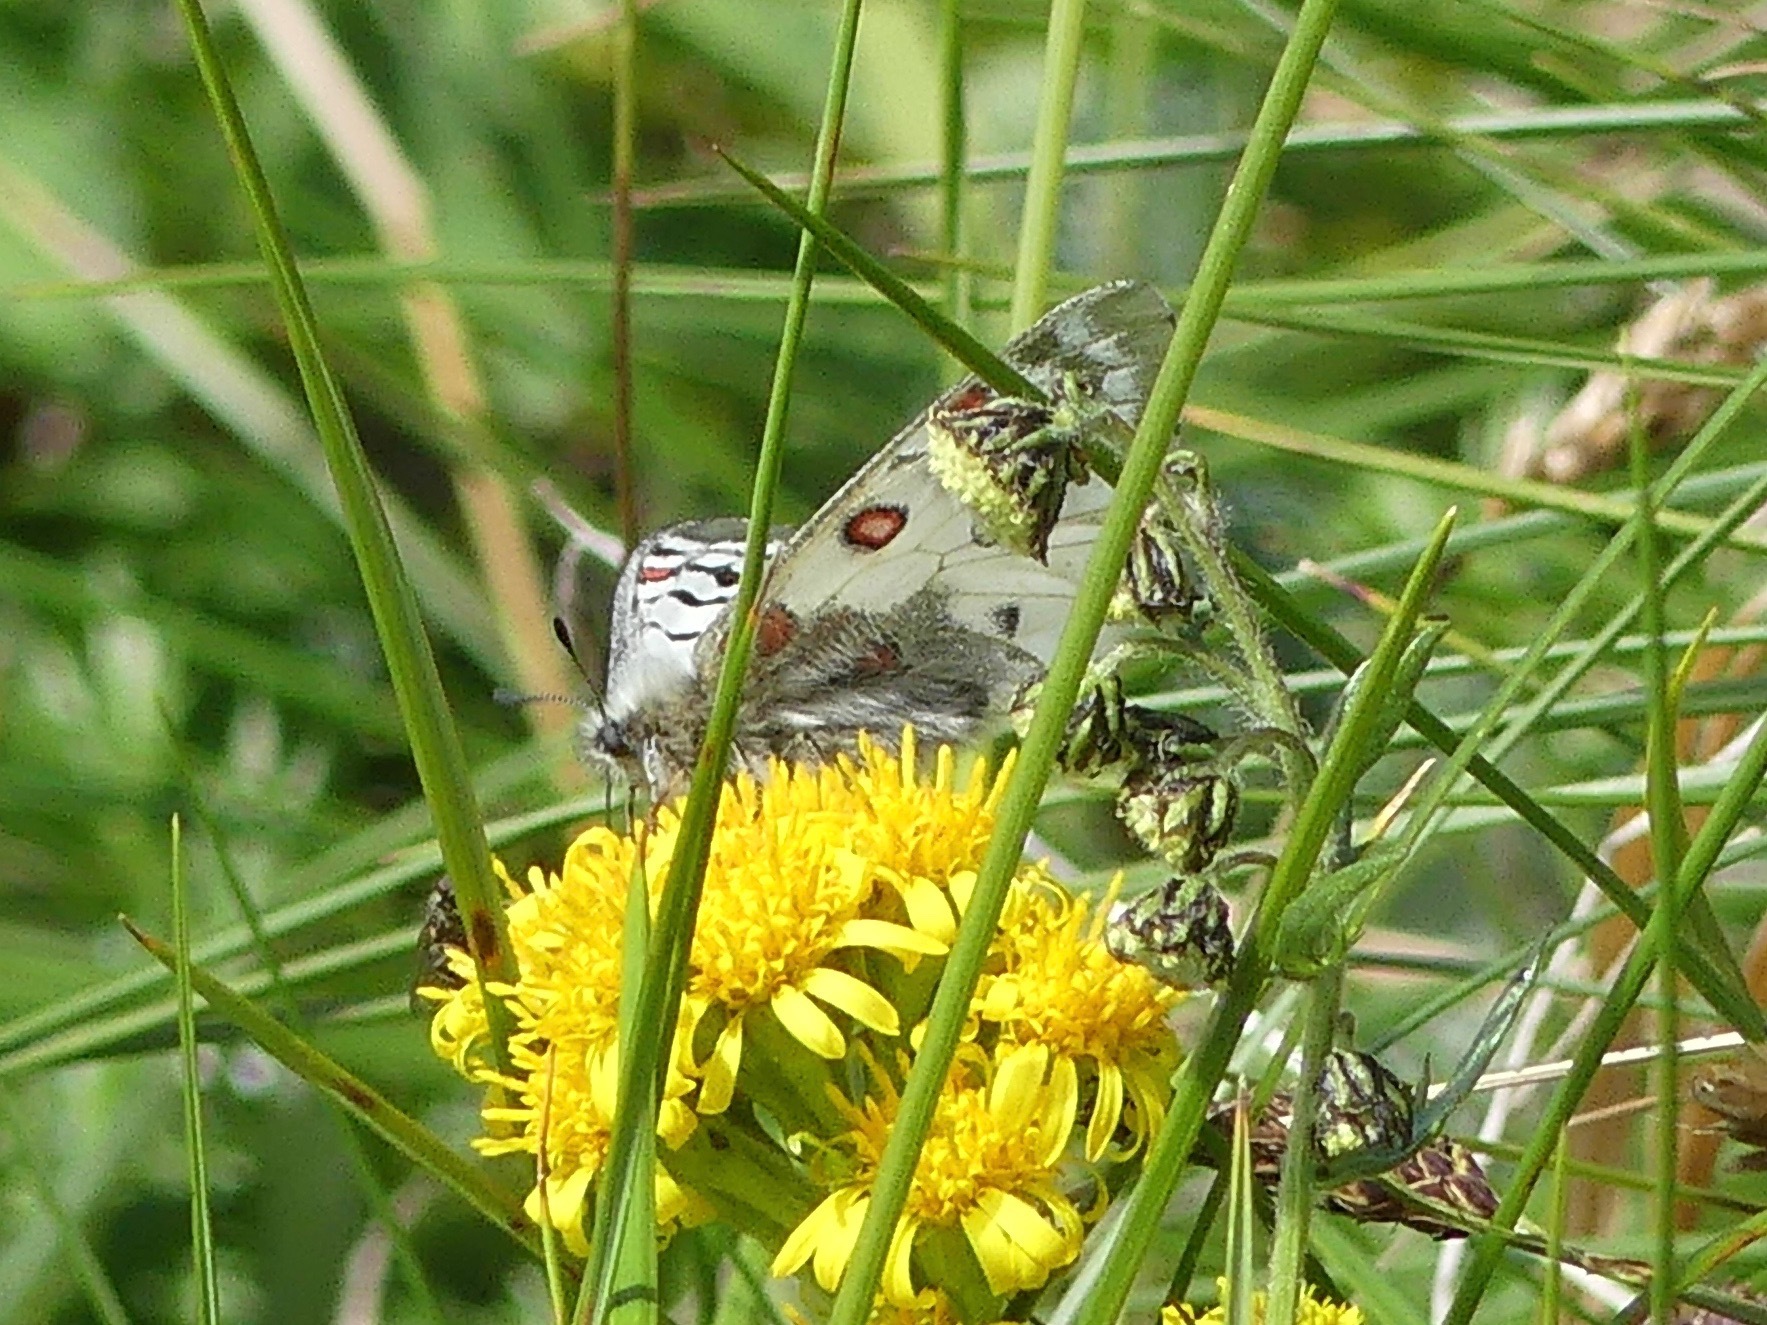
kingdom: Animalia
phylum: Arthropoda
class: Insecta
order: Lepidoptera
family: Papilionidae
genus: Parnassius
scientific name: Parnassius phoebus
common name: Small apollo
